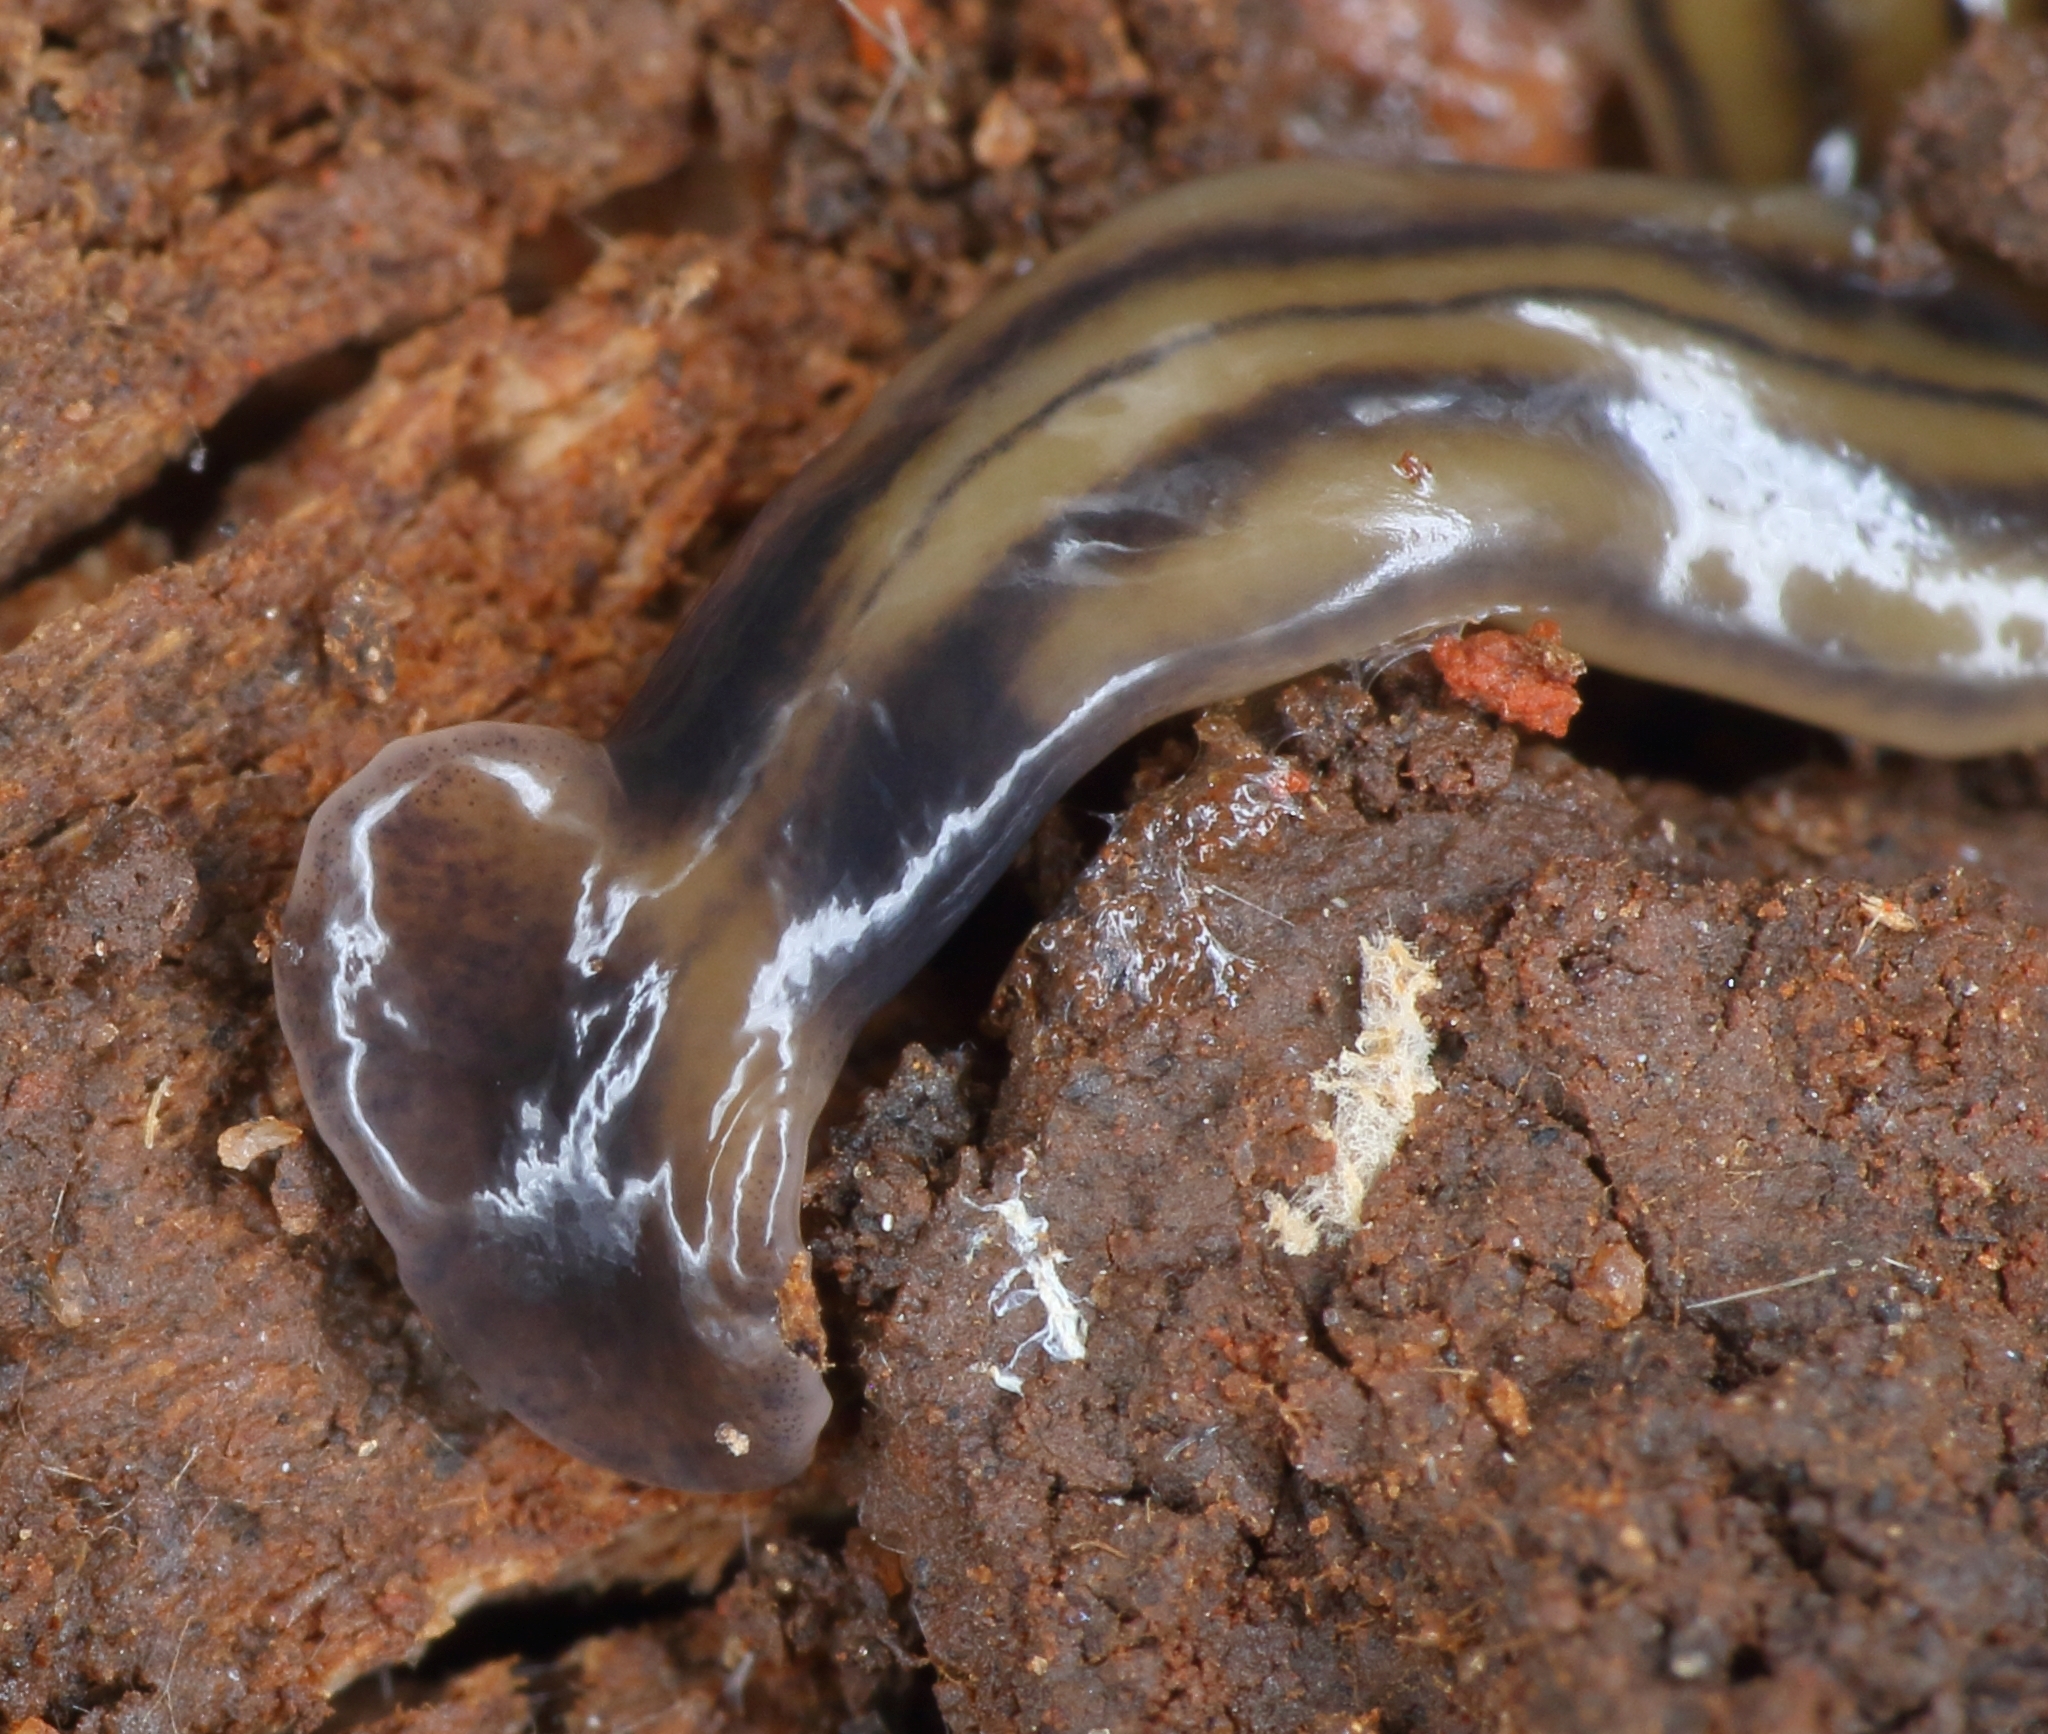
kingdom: Animalia
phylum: Platyhelminthes
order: Tricladida
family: Geoplanidae
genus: Bipalium
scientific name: Bipalium kewense
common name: Hammerhead flatworm
